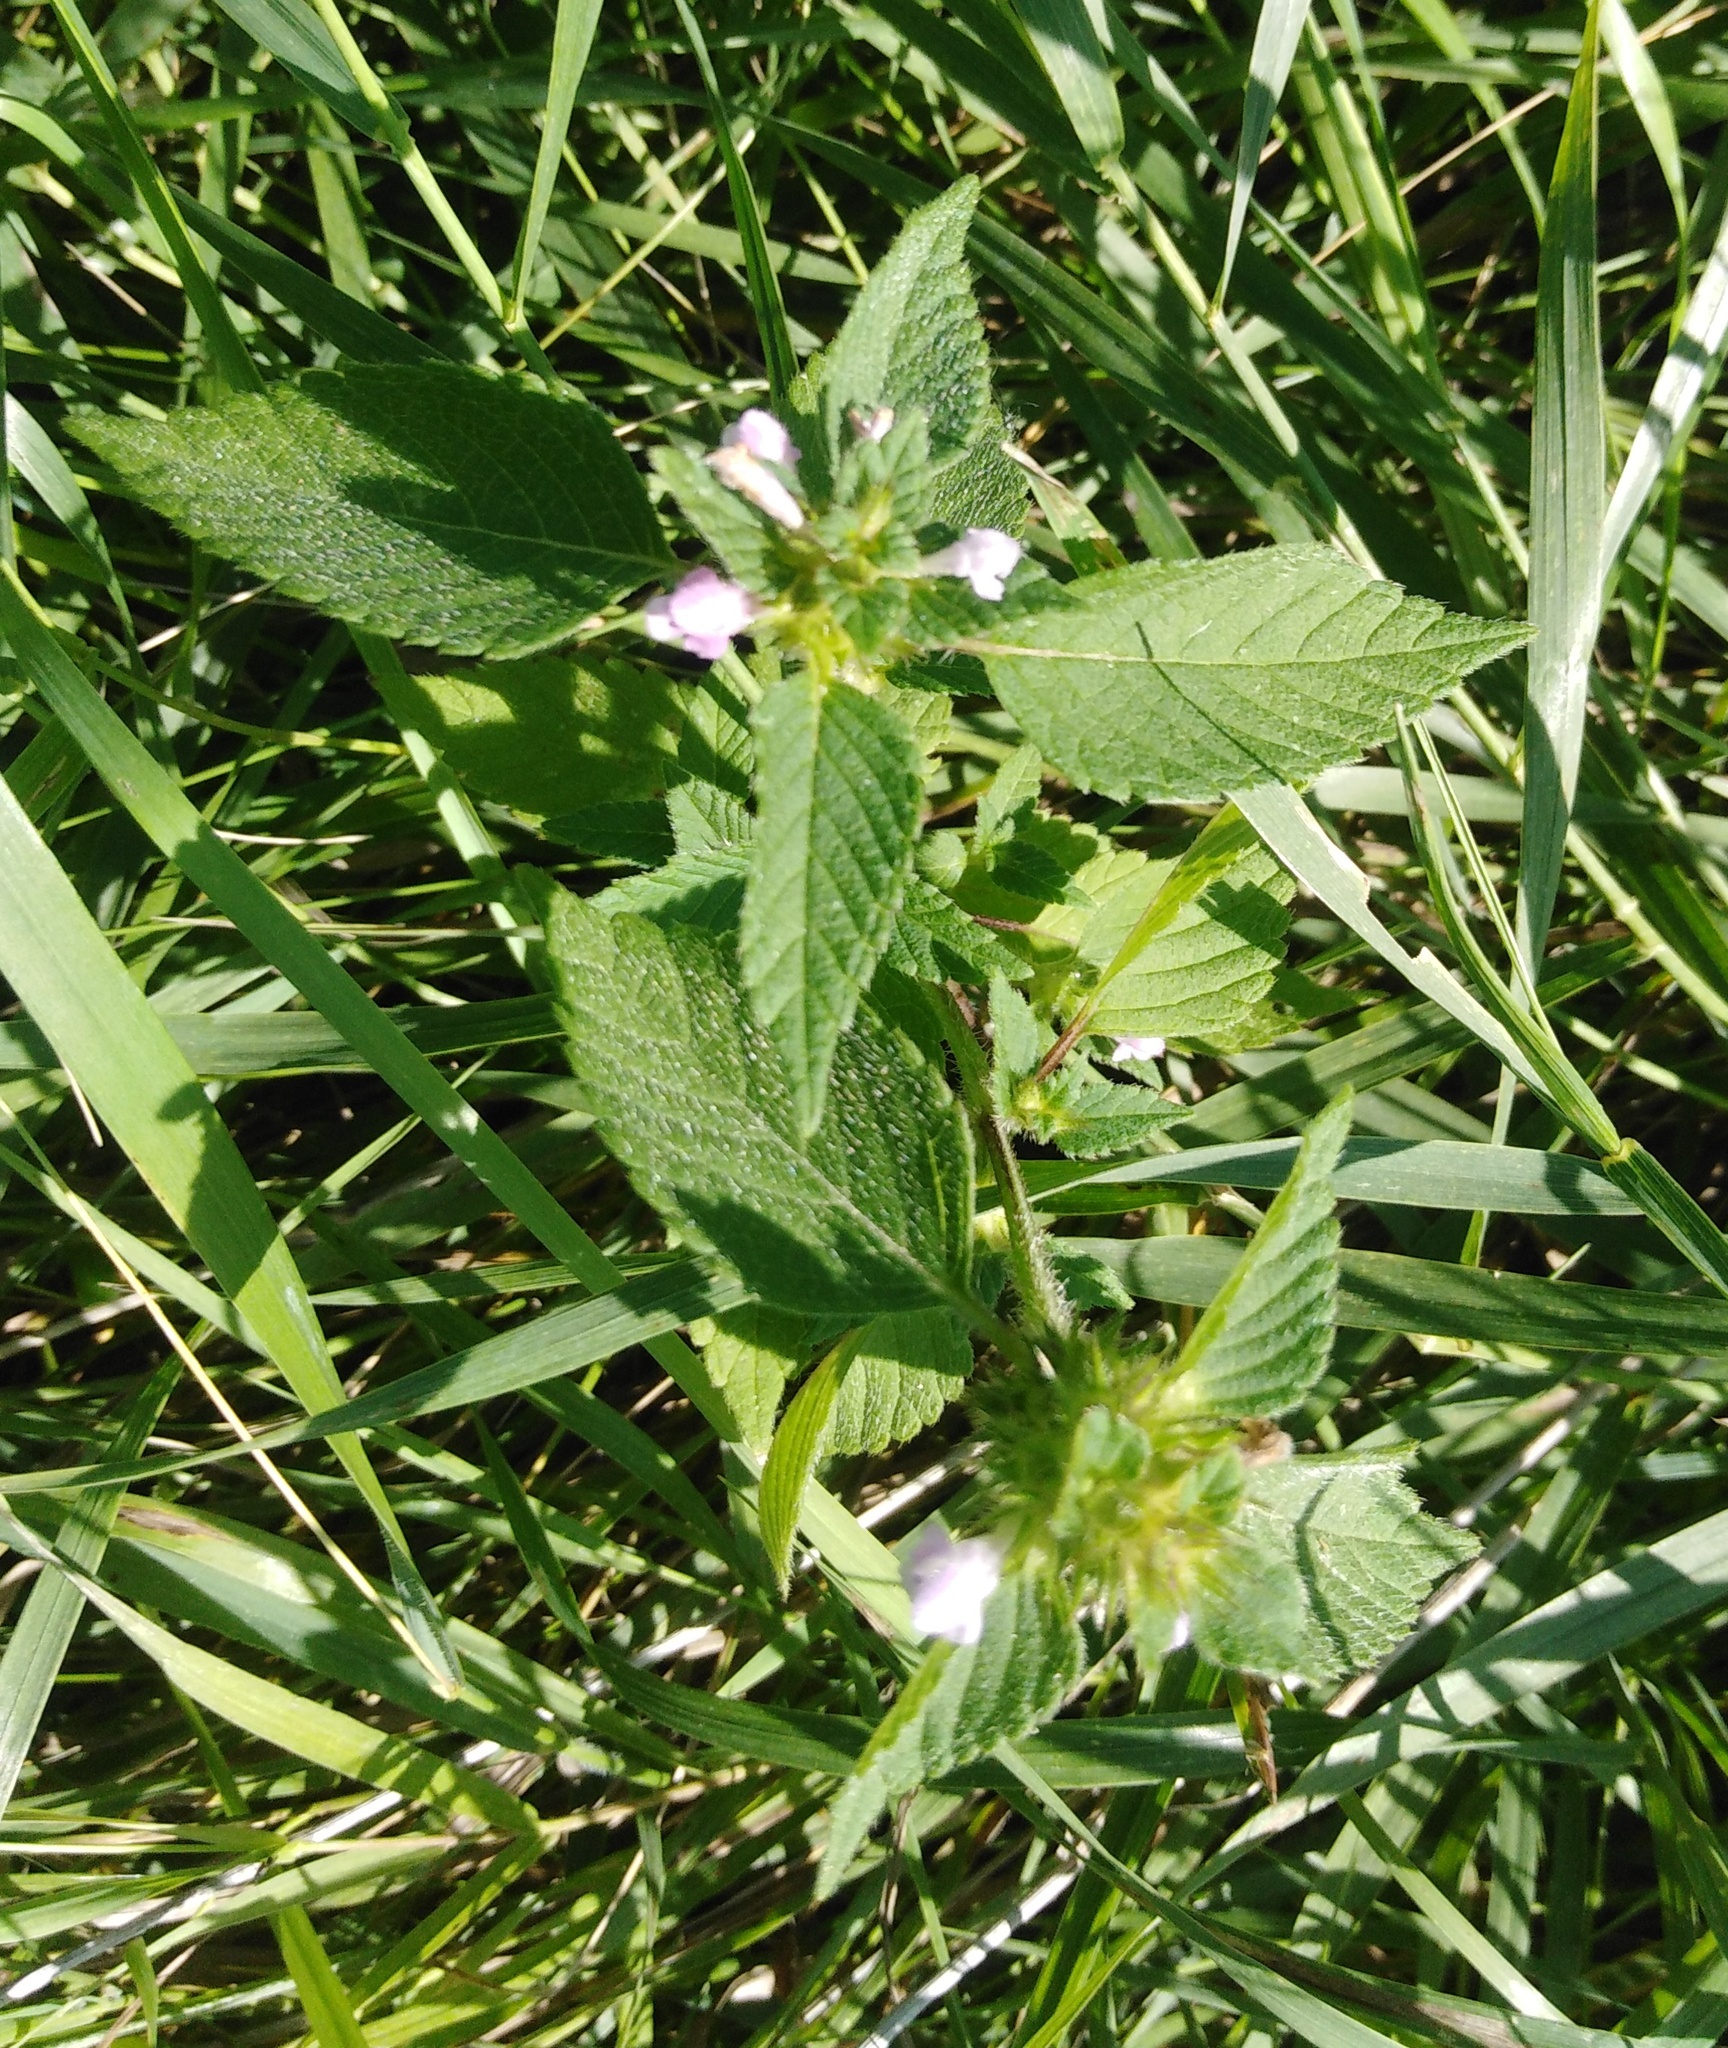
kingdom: Plantae
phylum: Tracheophyta
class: Magnoliopsida
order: Lamiales
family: Lamiaceae
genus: Galeopsis
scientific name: Galeopsis tetrahit
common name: Common hemp-nettle
